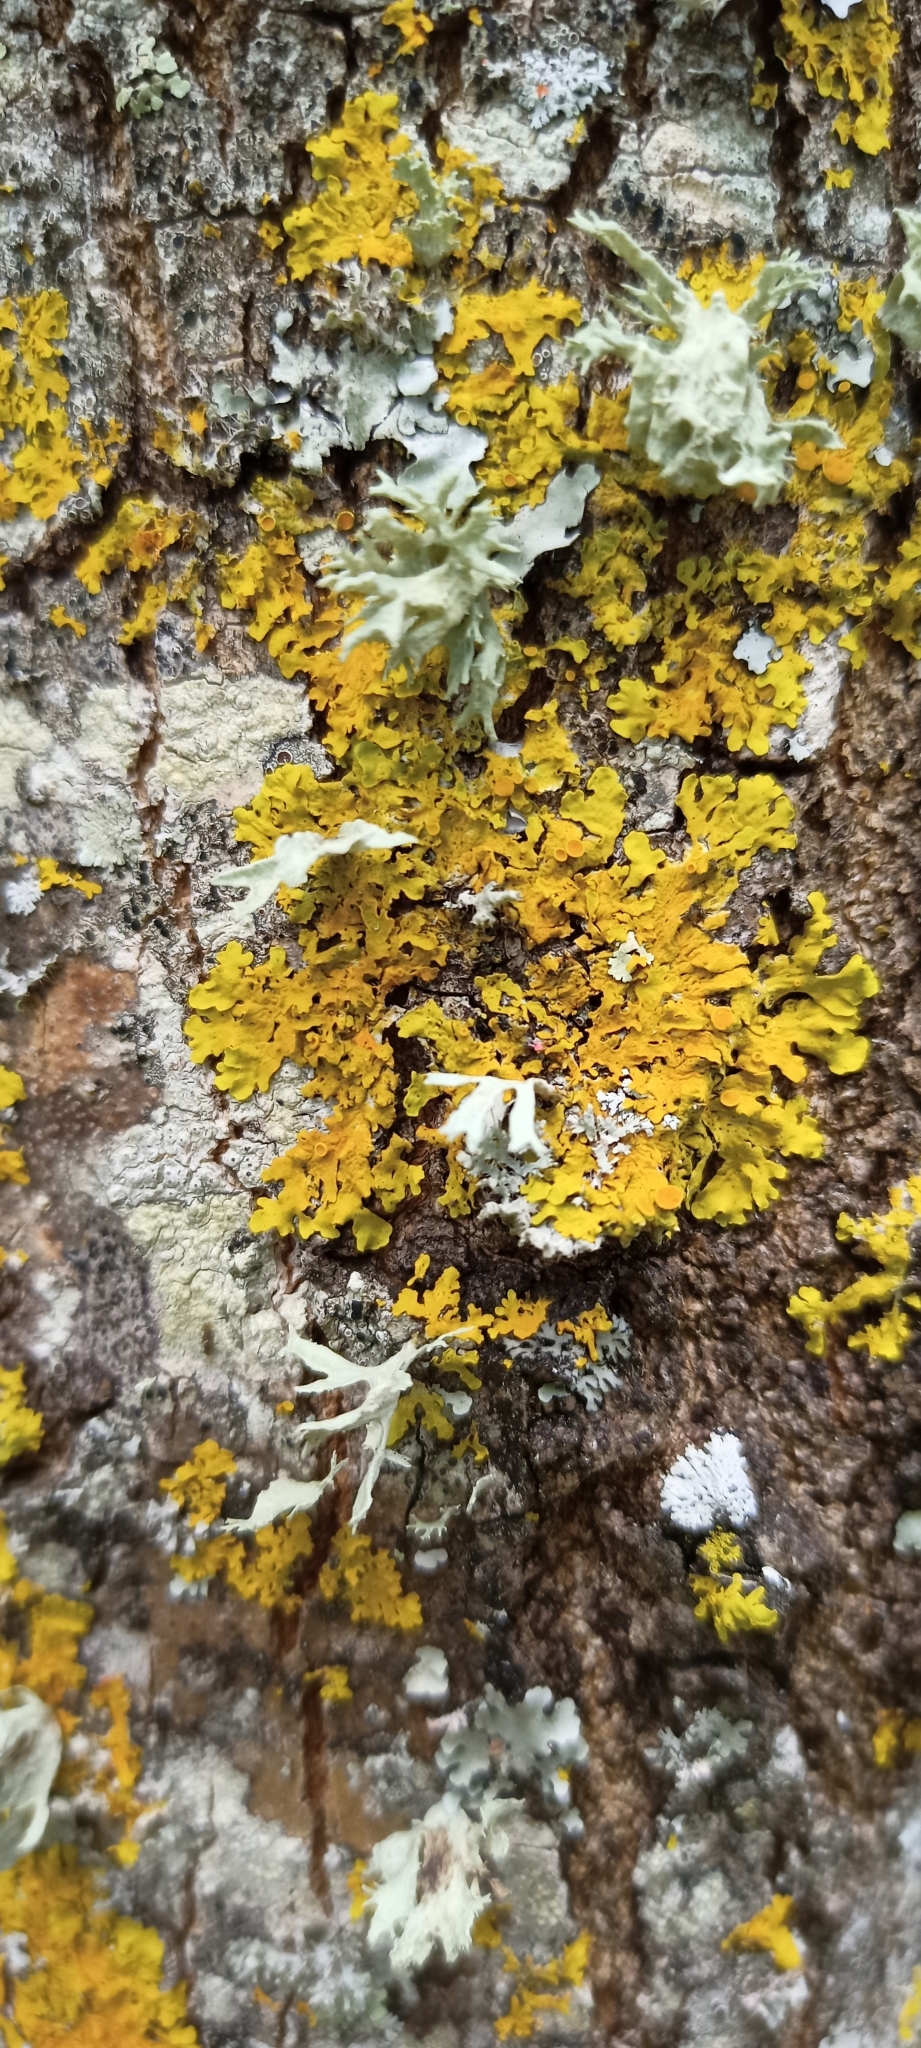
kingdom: Fungi
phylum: Ascomycota
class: Lecanoromycetes
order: Teloschistales
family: Teloschistaceae
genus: Xanthoria
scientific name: Xanthoria parietina
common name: Common orange lichen
